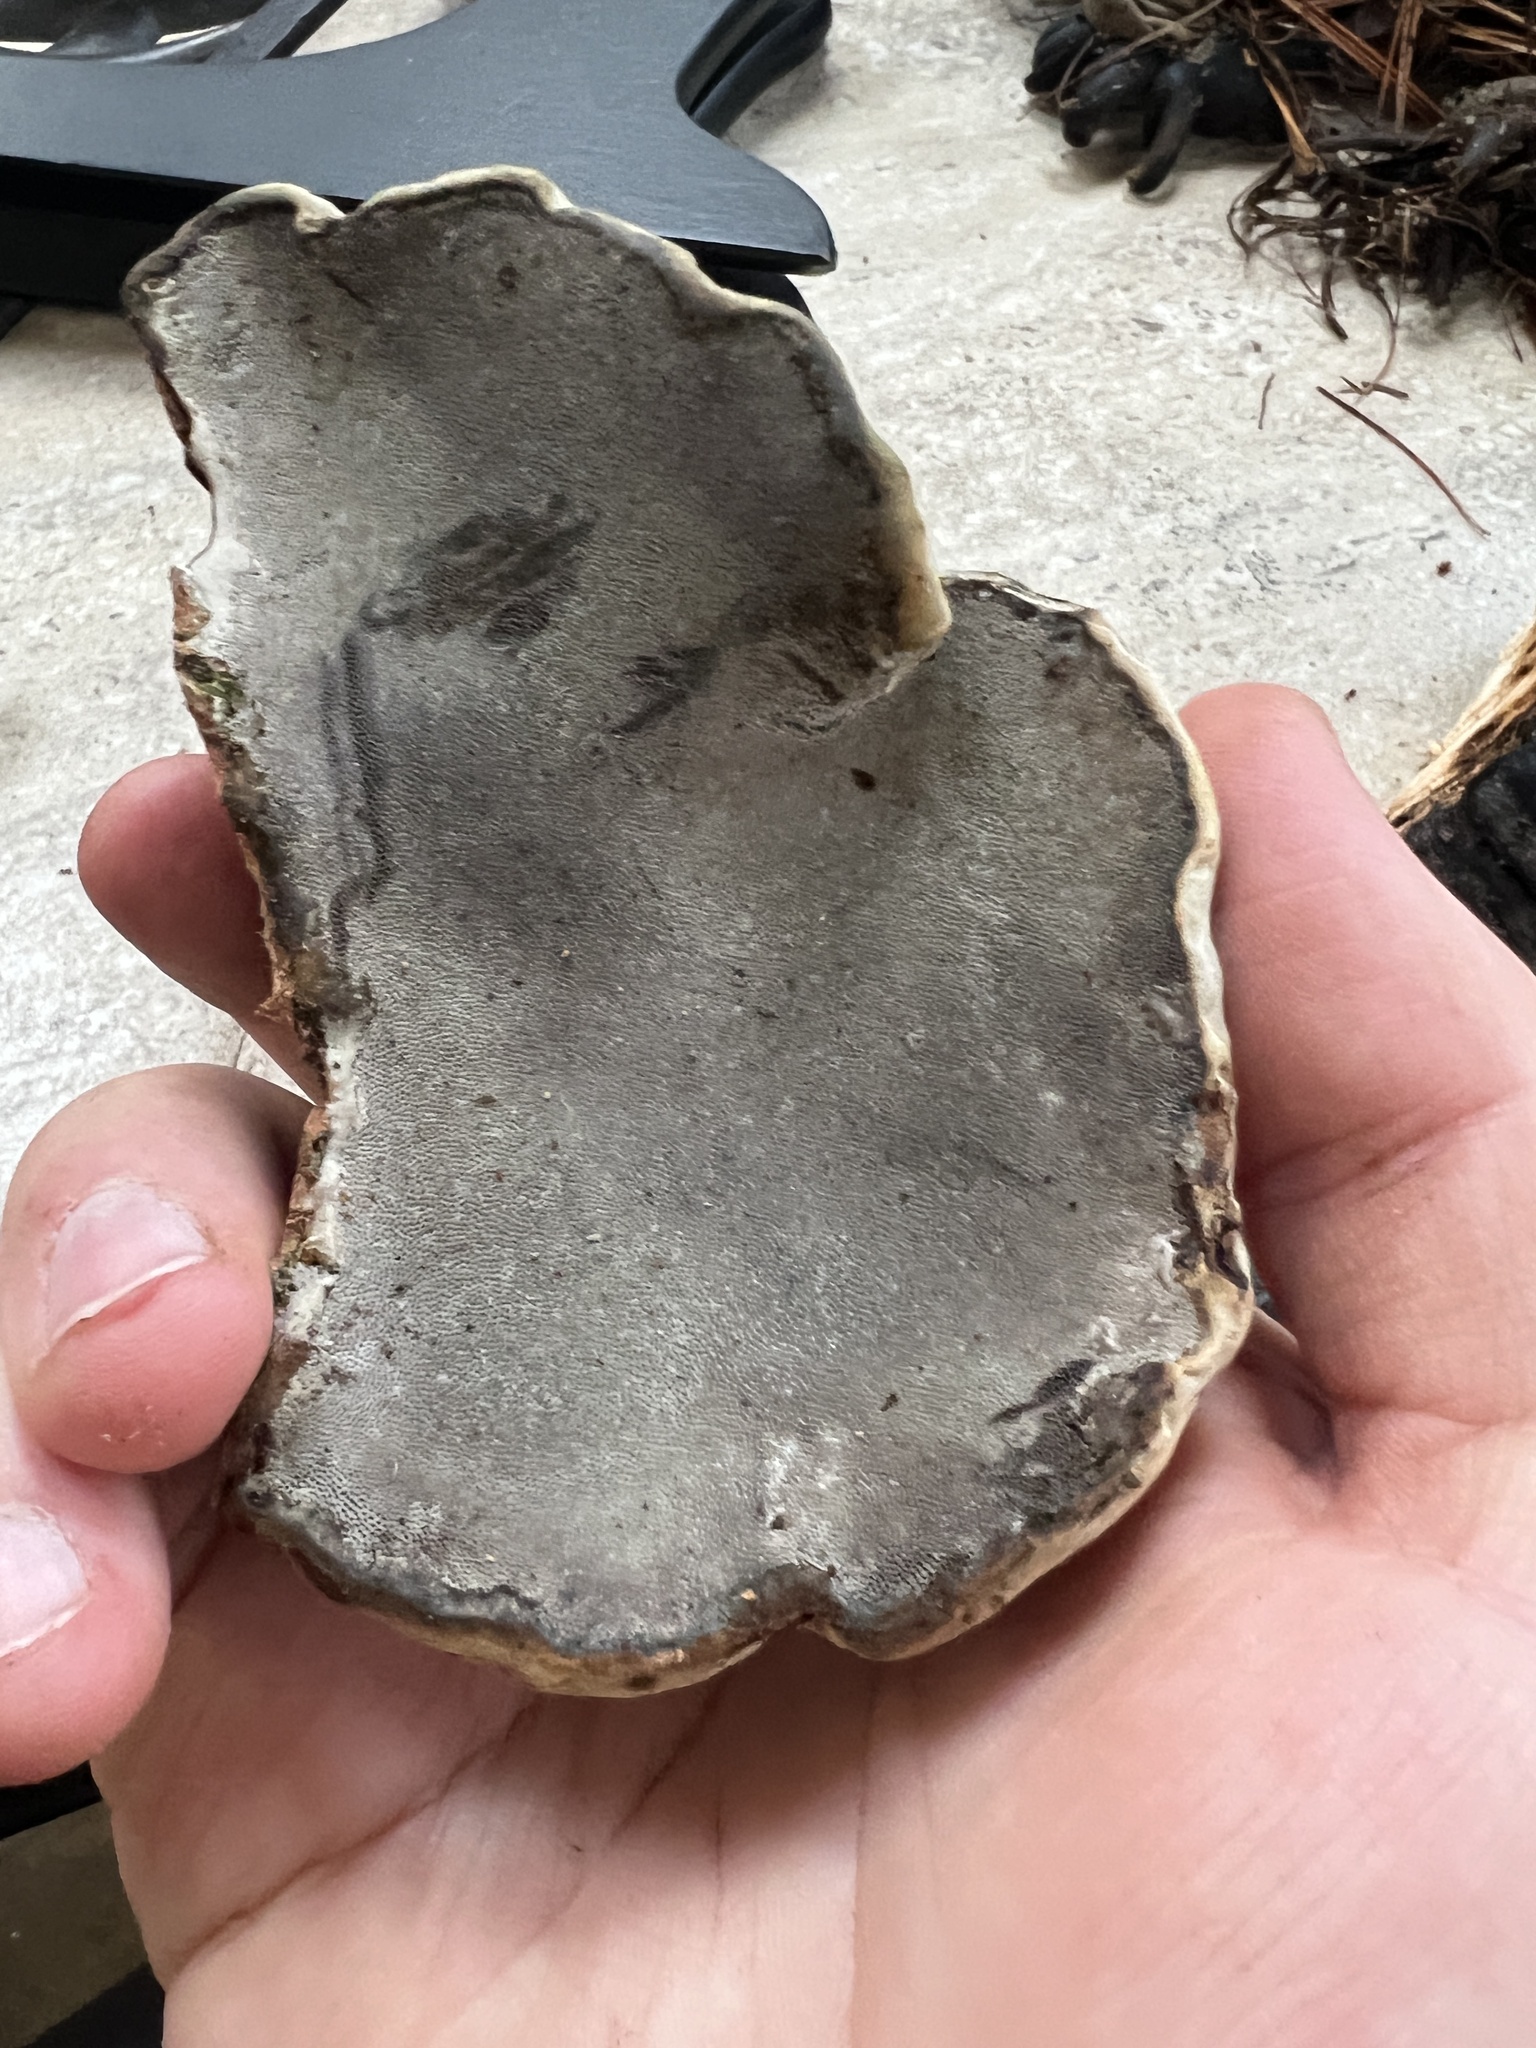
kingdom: Fungi
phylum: Basidiomycota
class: Agaricomycetes
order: Polyporales
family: Polyporaceae
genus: Fomes
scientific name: Fomes fomentarius
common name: Hoof fungus
